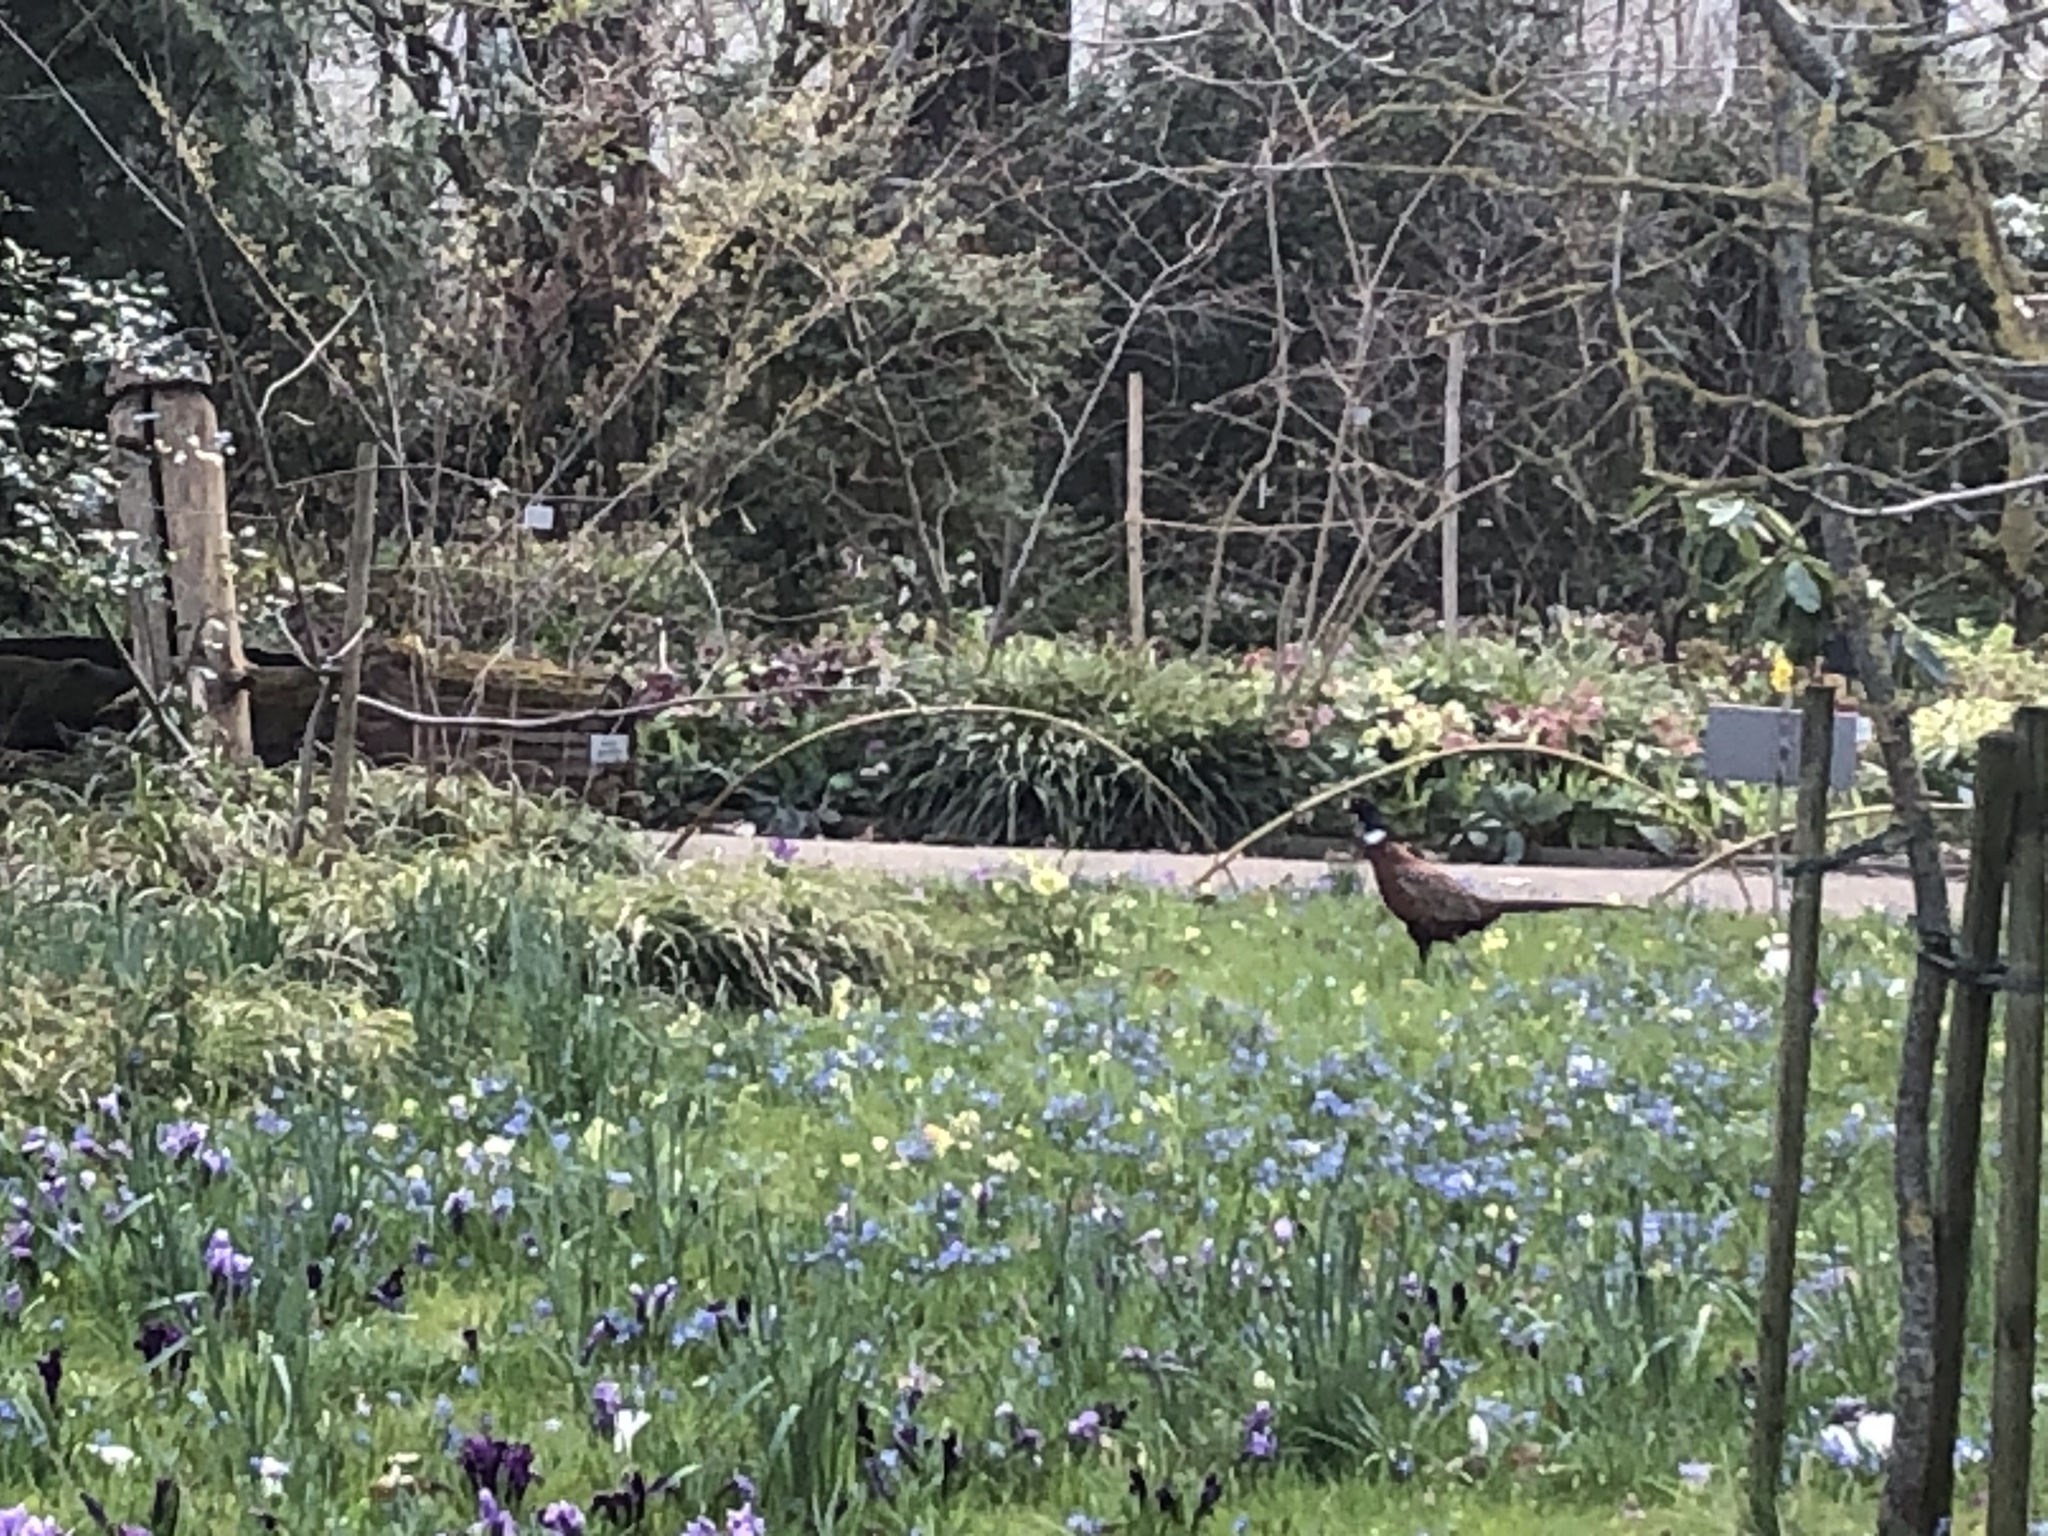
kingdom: Animalia
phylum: Chordata
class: Aves
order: Galliformes
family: Phasianidae
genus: Phasianus
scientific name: Phasianus colchicus
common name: Common pheasant
